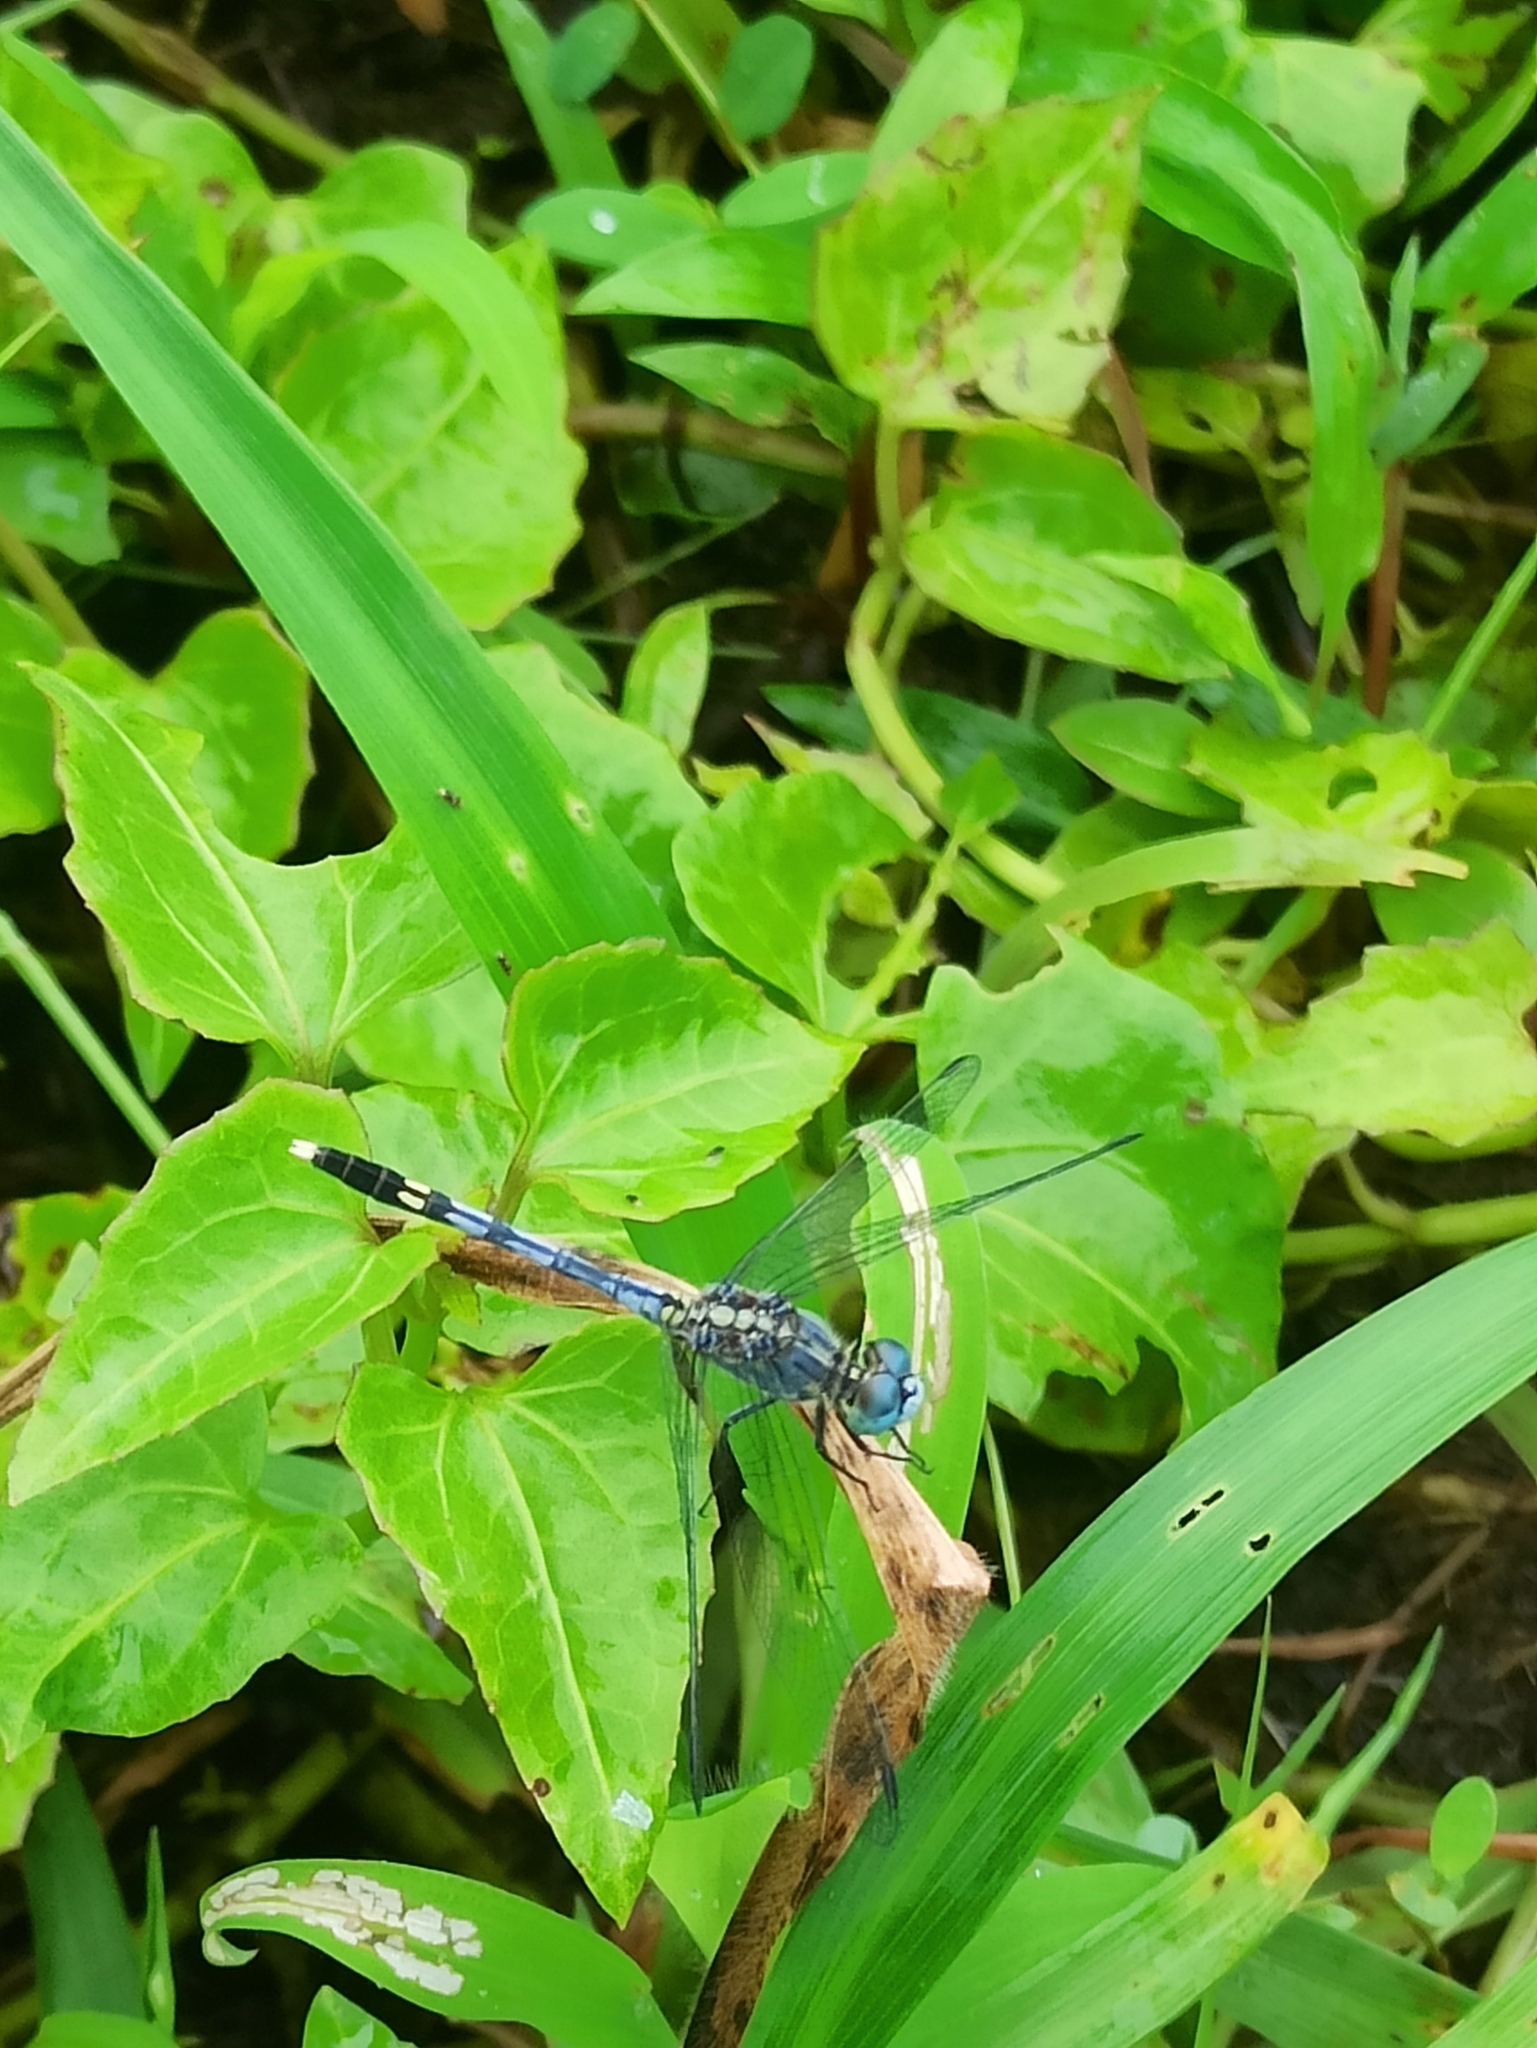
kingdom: Animalia
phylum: Arthropoda
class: Insecta
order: Odonata
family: Libellulidae
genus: Diplacodes
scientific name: Diplacodes trivialis
